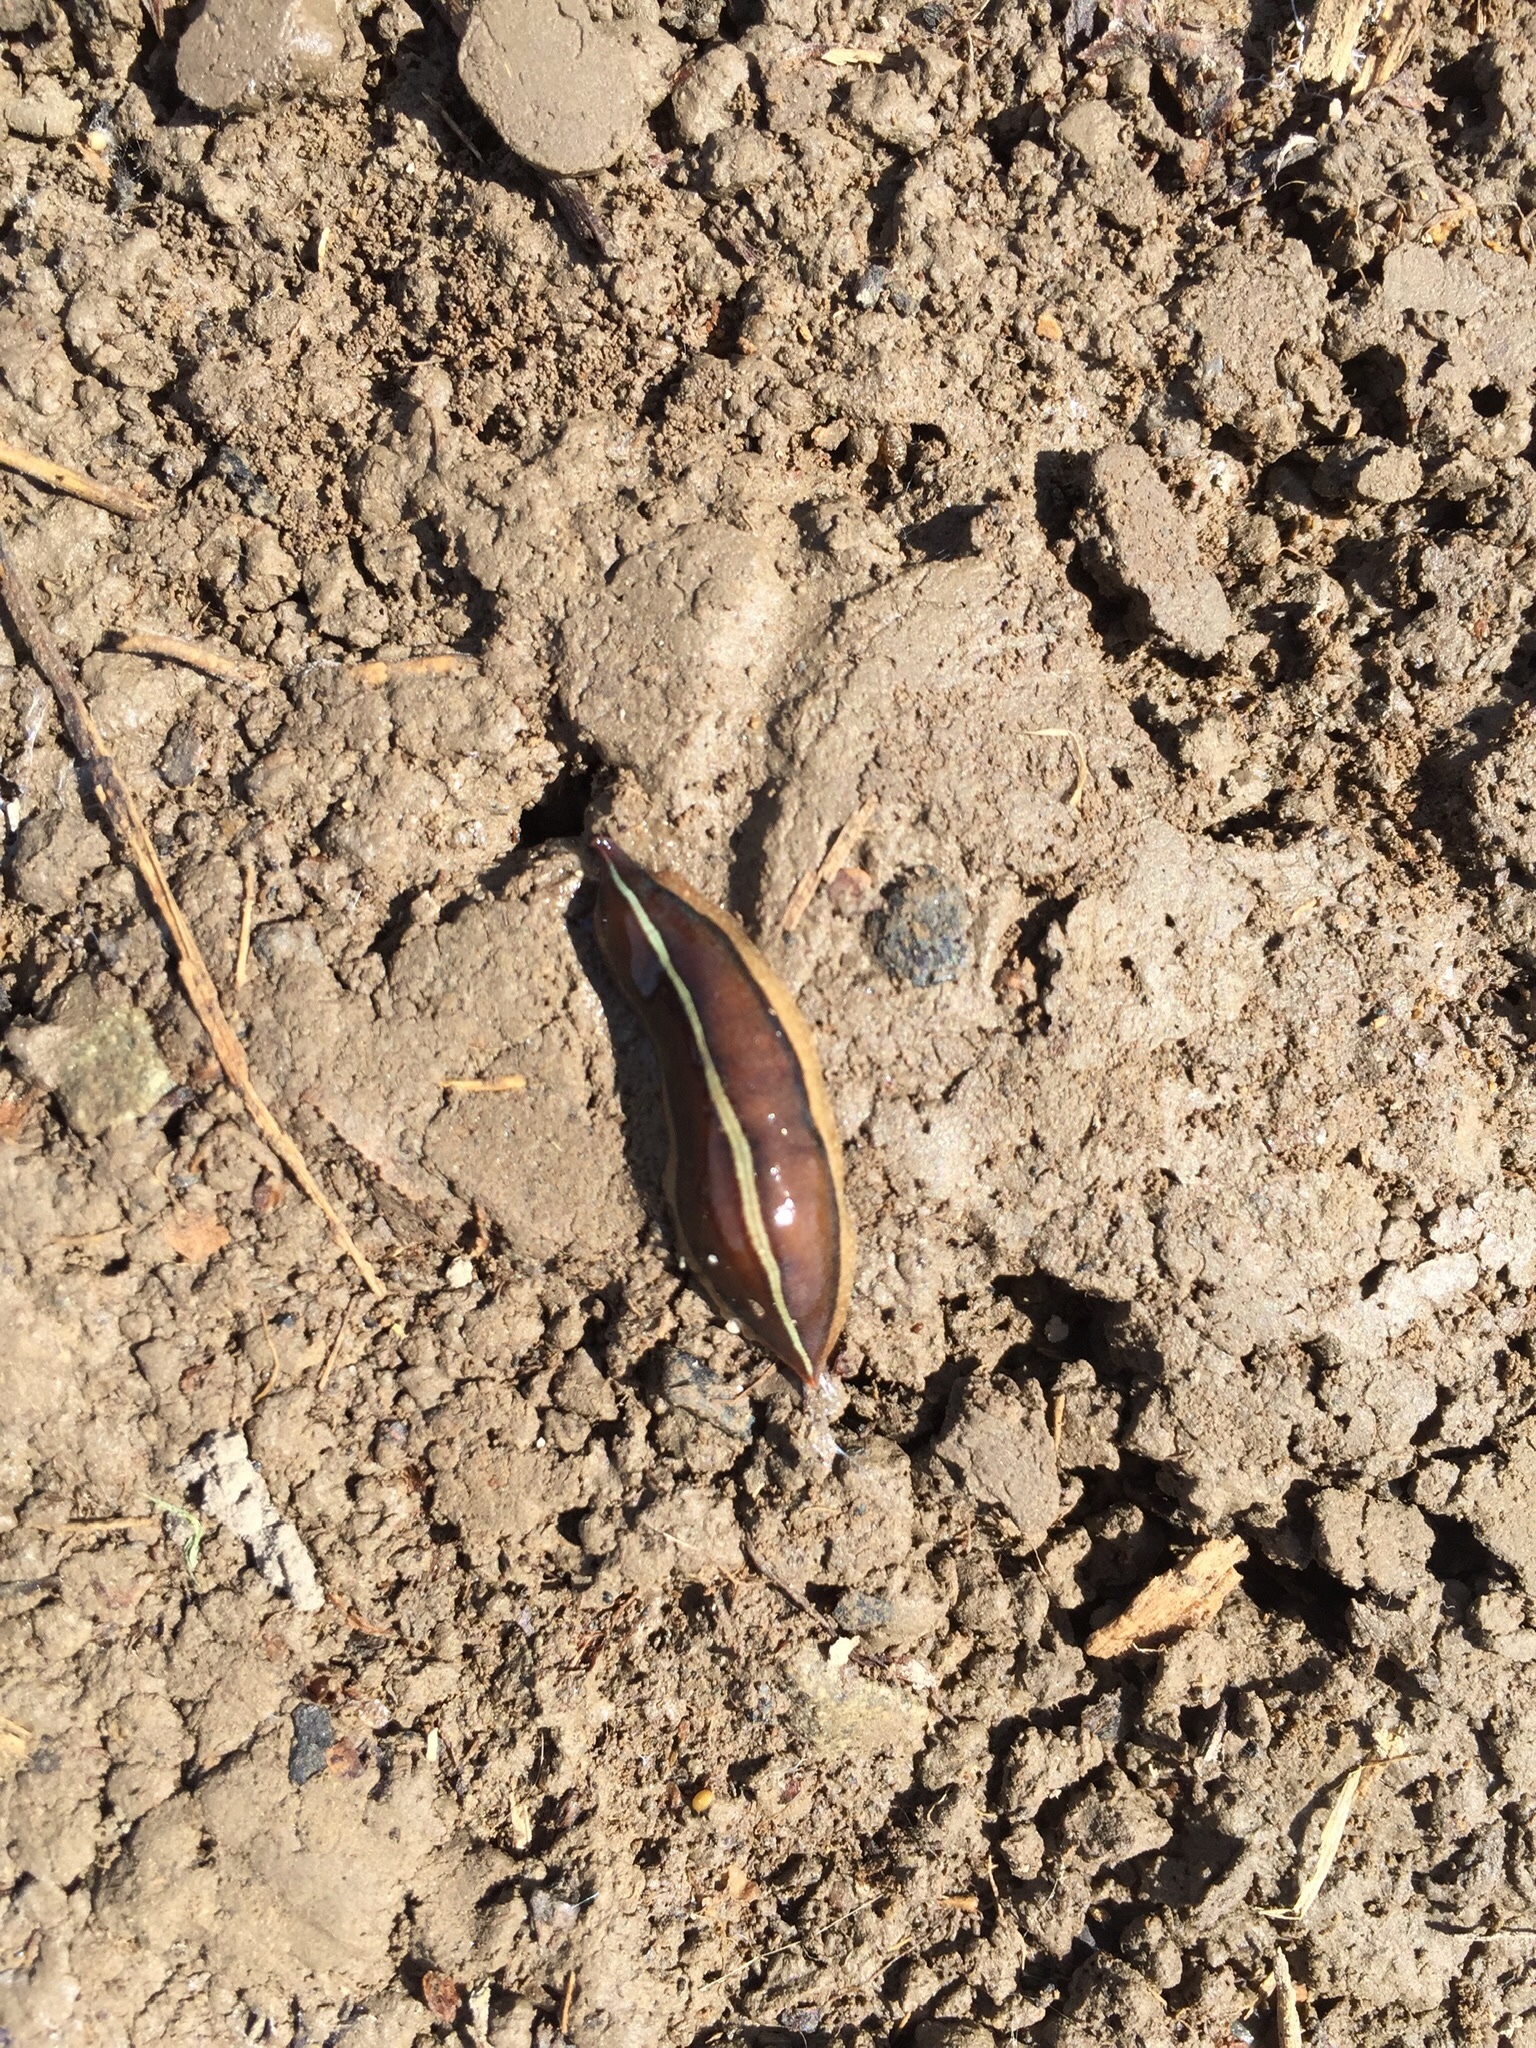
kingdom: Animalia
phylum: Platyhelminthes
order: Tricladida
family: Geoplanidae
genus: Newzealandia
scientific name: Newzealandia graffii
